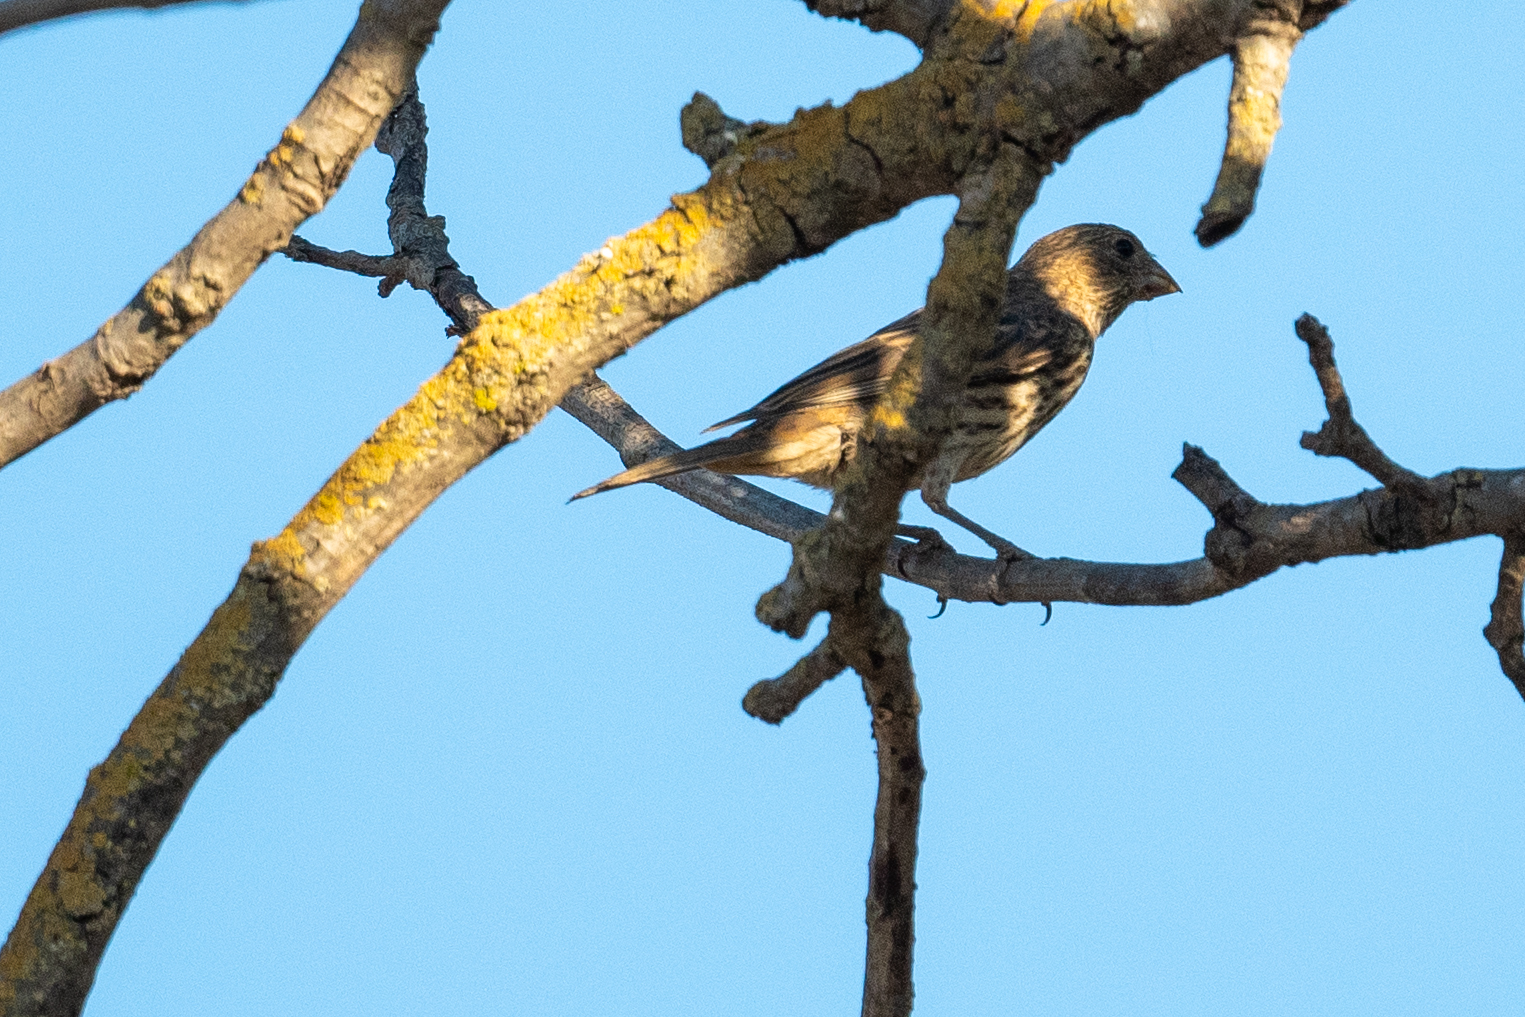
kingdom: Animalia
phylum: Chordata
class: Aves
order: Passeriformes
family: Fringillidae
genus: Haemorhous
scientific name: Haemorhous mexicanus
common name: House finch
